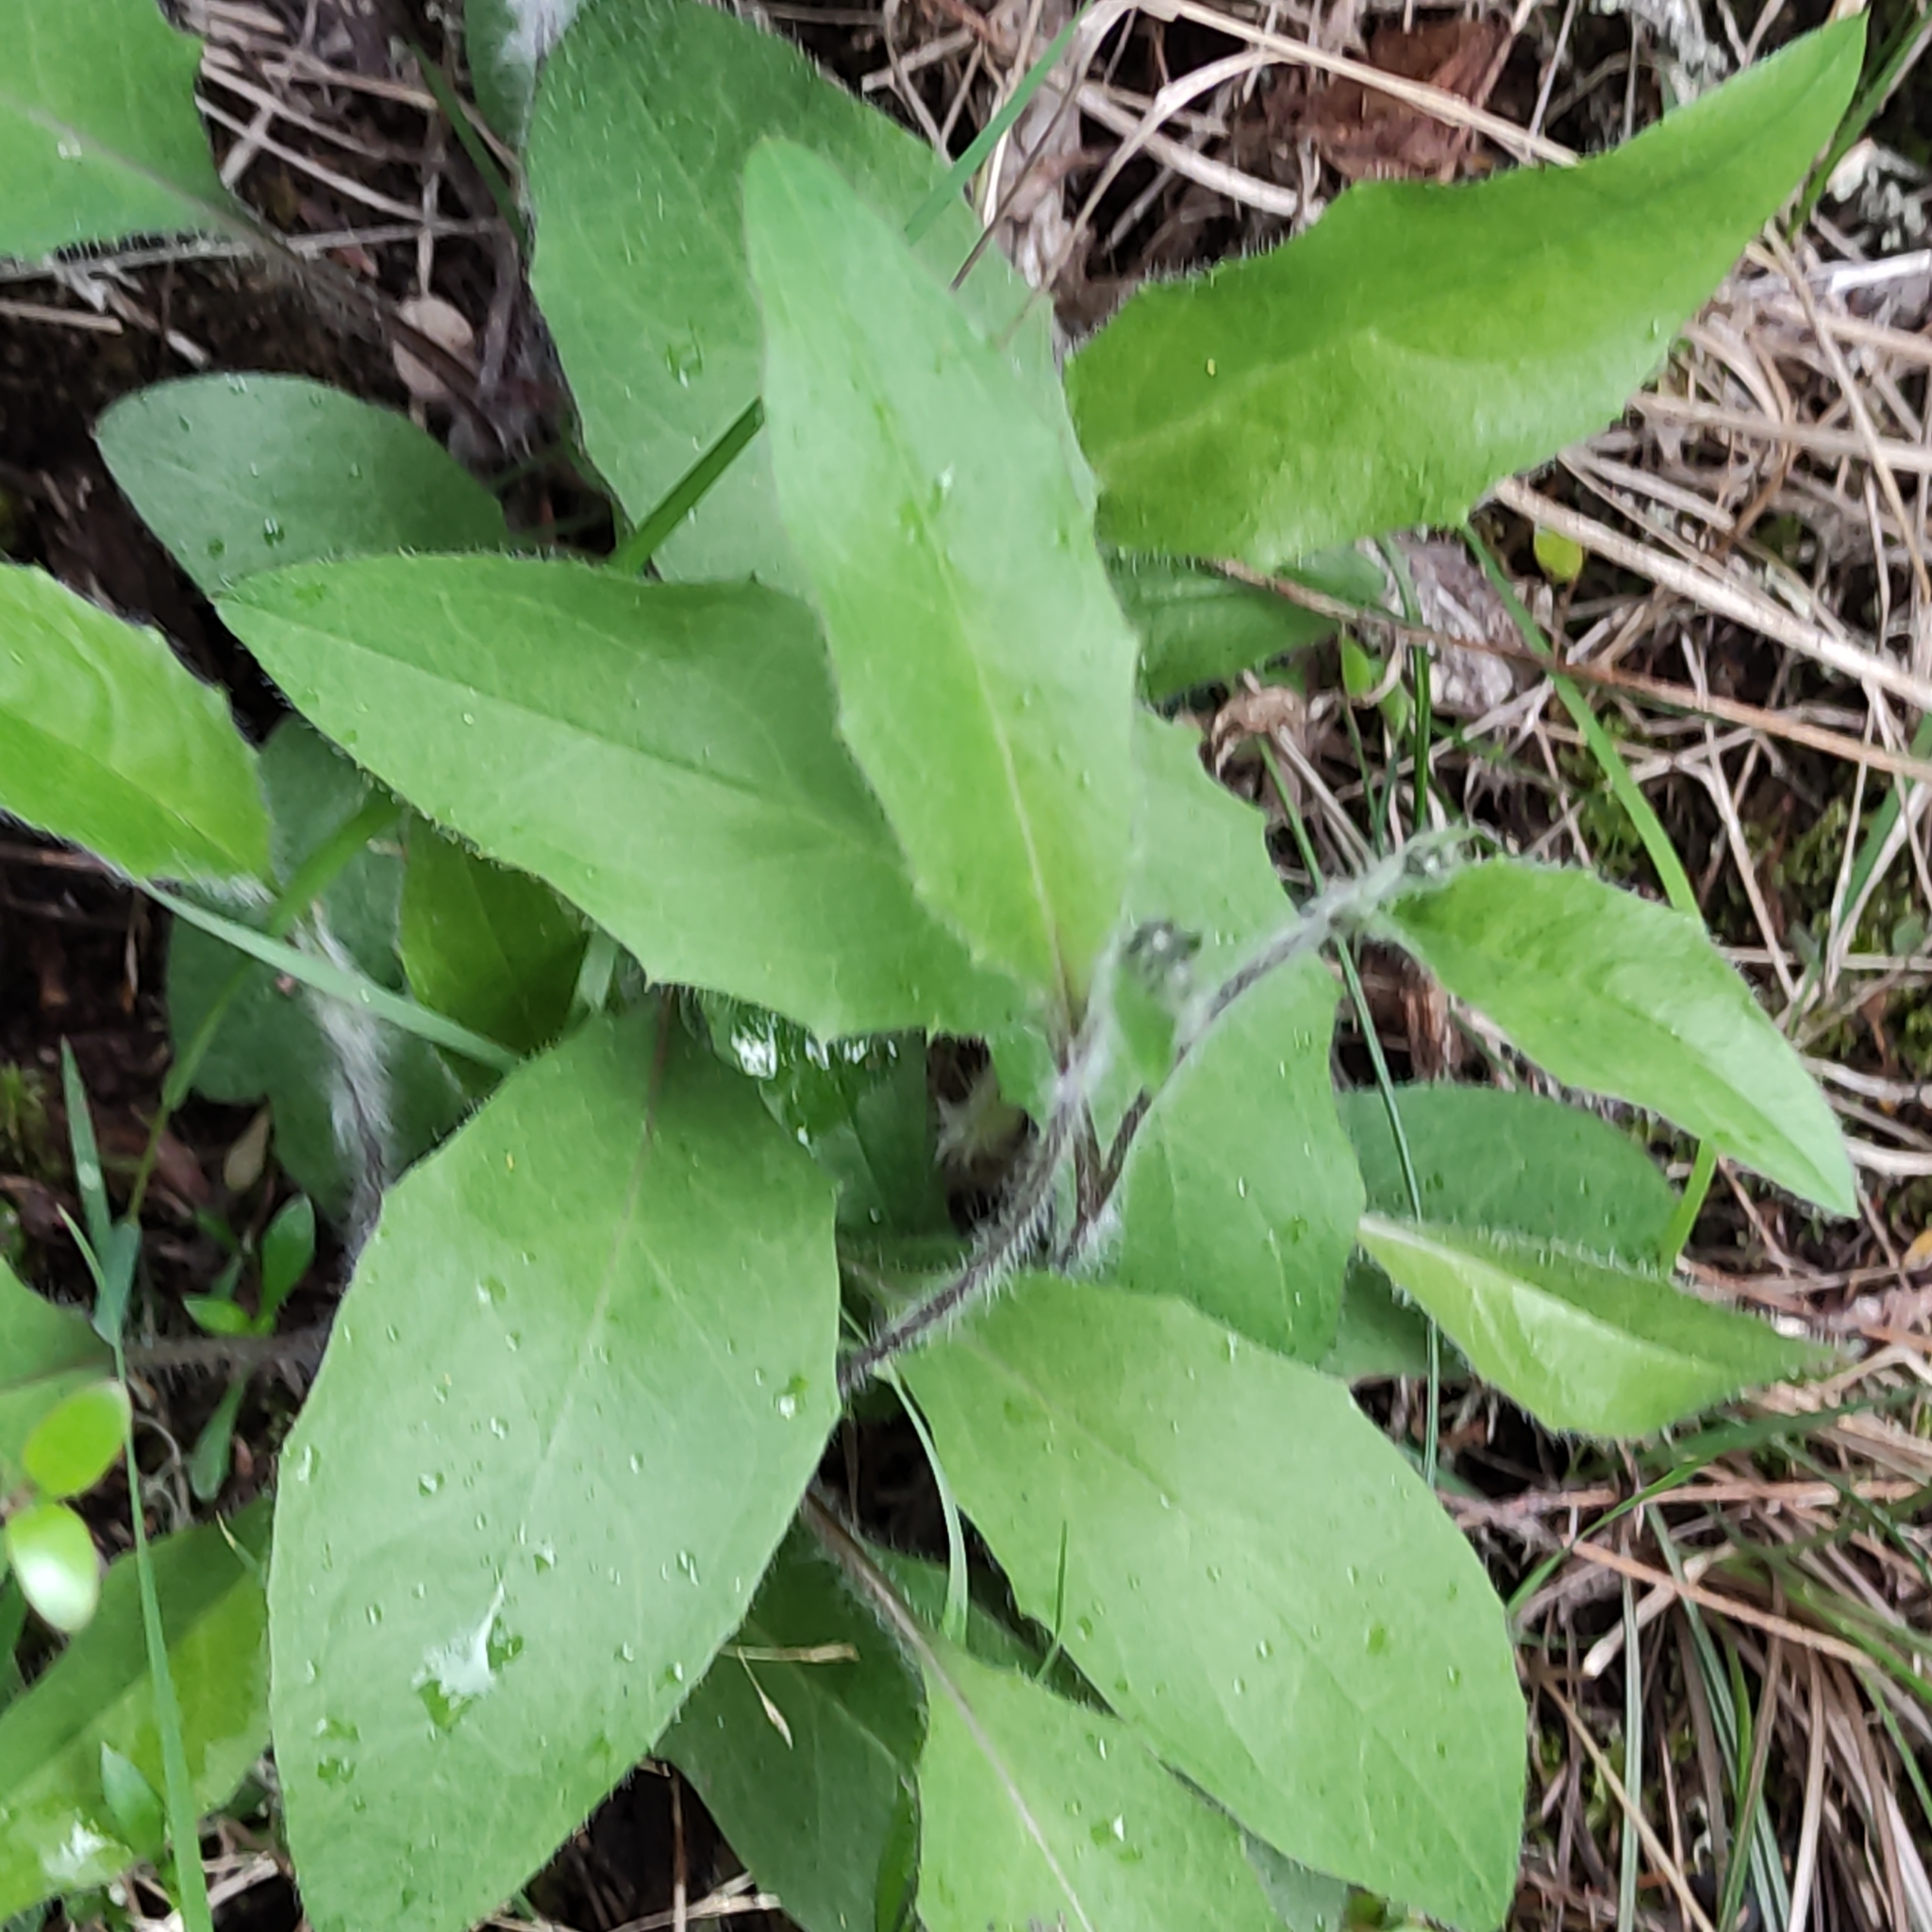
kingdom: Plantae
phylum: Tracheophyta
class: Magnoliopsida
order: Asterales
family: Asteraceae
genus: Hieracium
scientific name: Hieracium lepidulum
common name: Irregular-toothed hawkweed
